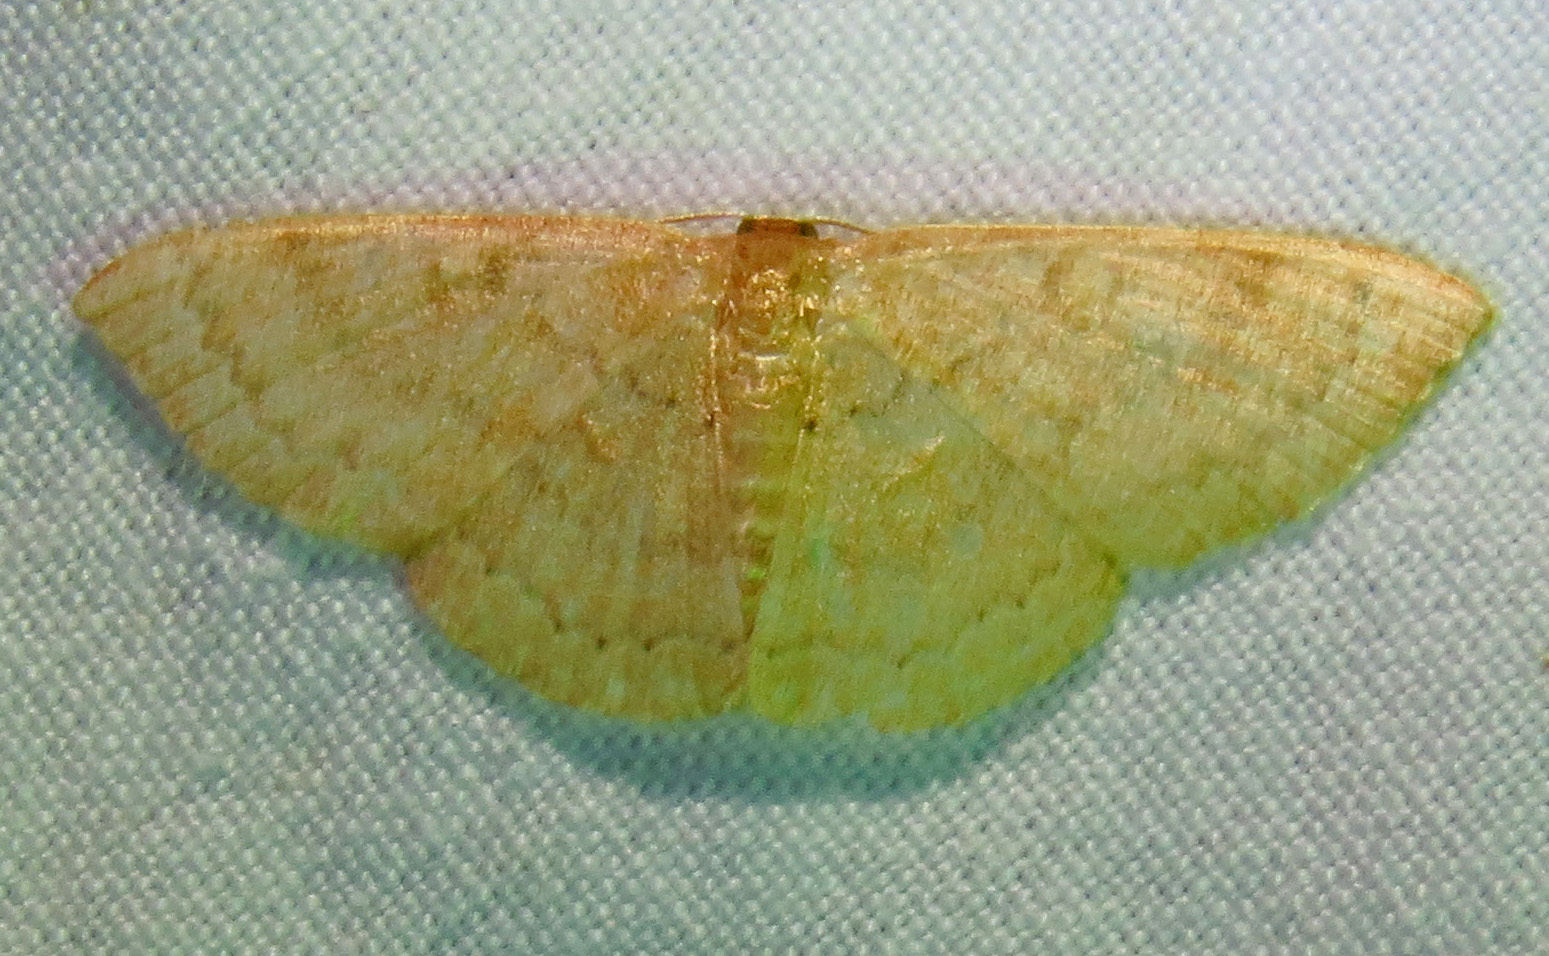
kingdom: Animalia
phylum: Arthropoda
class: Insecta
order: Lepidoptera
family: Geometridae
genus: Pleuroprucha
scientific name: Pleuroprucha insulsaria
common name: Common tan wave
